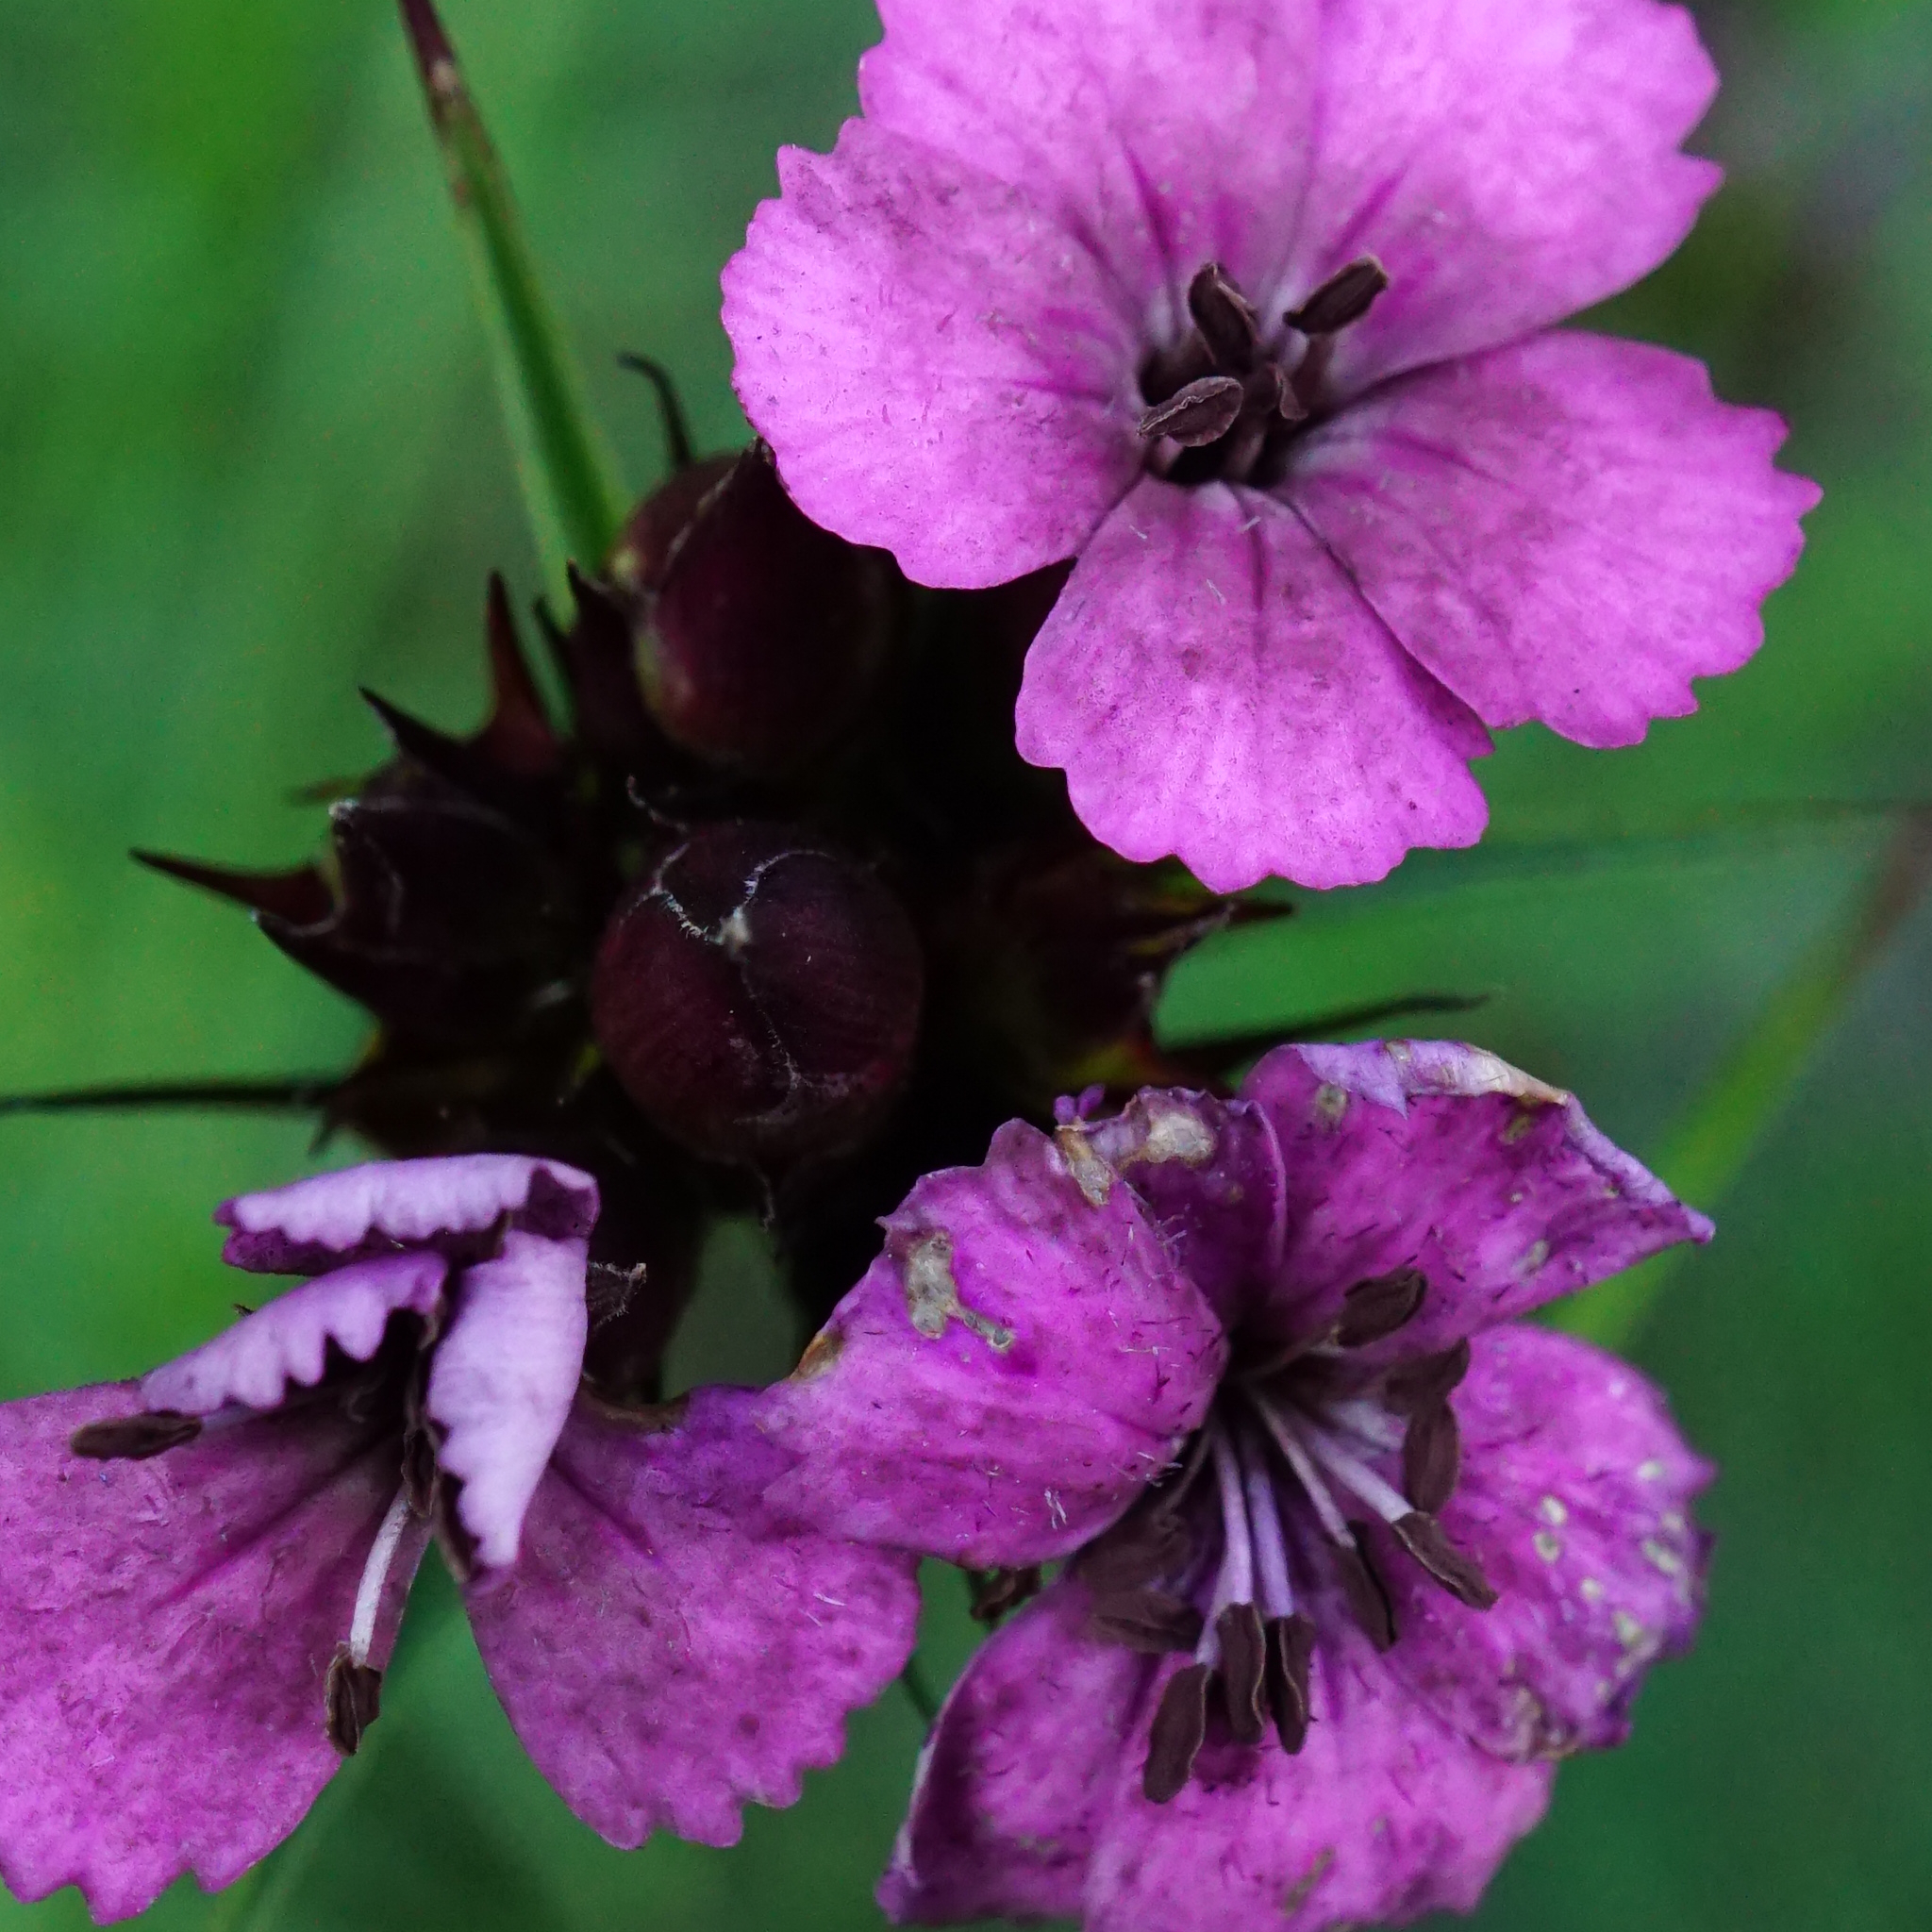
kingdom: Fungi
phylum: Basidiomycota
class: Microbotryomycetes
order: Microbotryales
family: Microbotryaceae
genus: Microbotryum
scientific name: Microbotryum dianthorum
